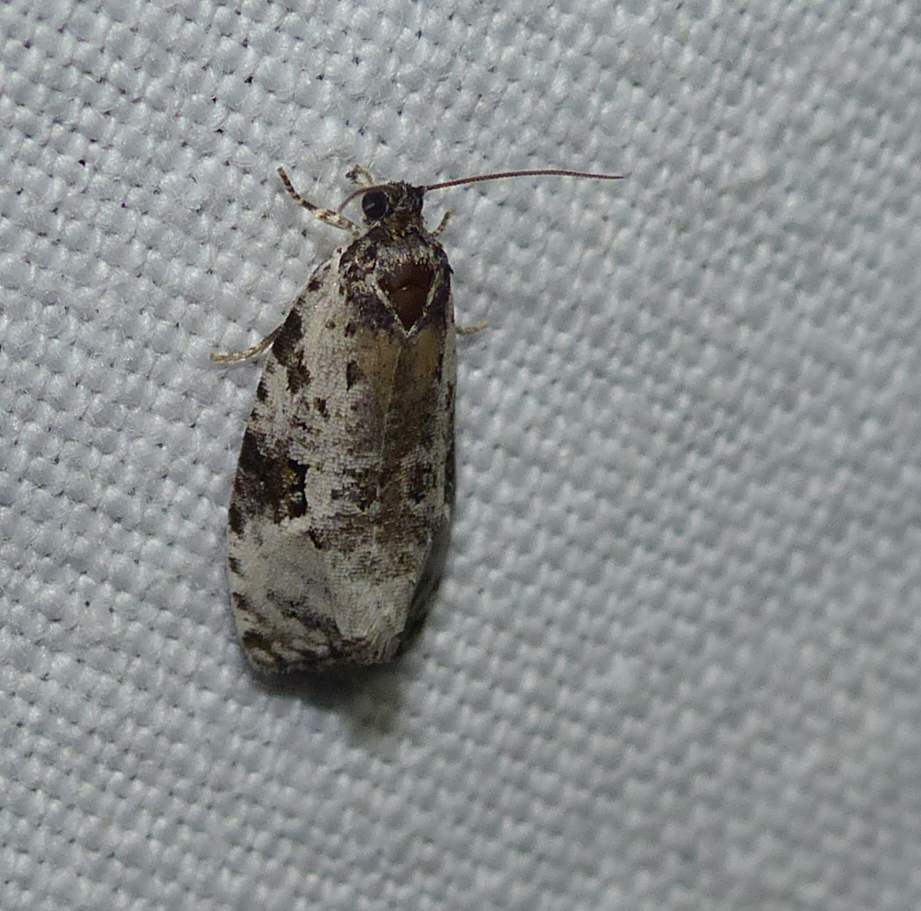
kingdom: Animalia
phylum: Arthropoda
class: Insecta
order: Lepidoptera
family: Tortricidae
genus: Apotomis
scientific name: Apotomis albeolana
